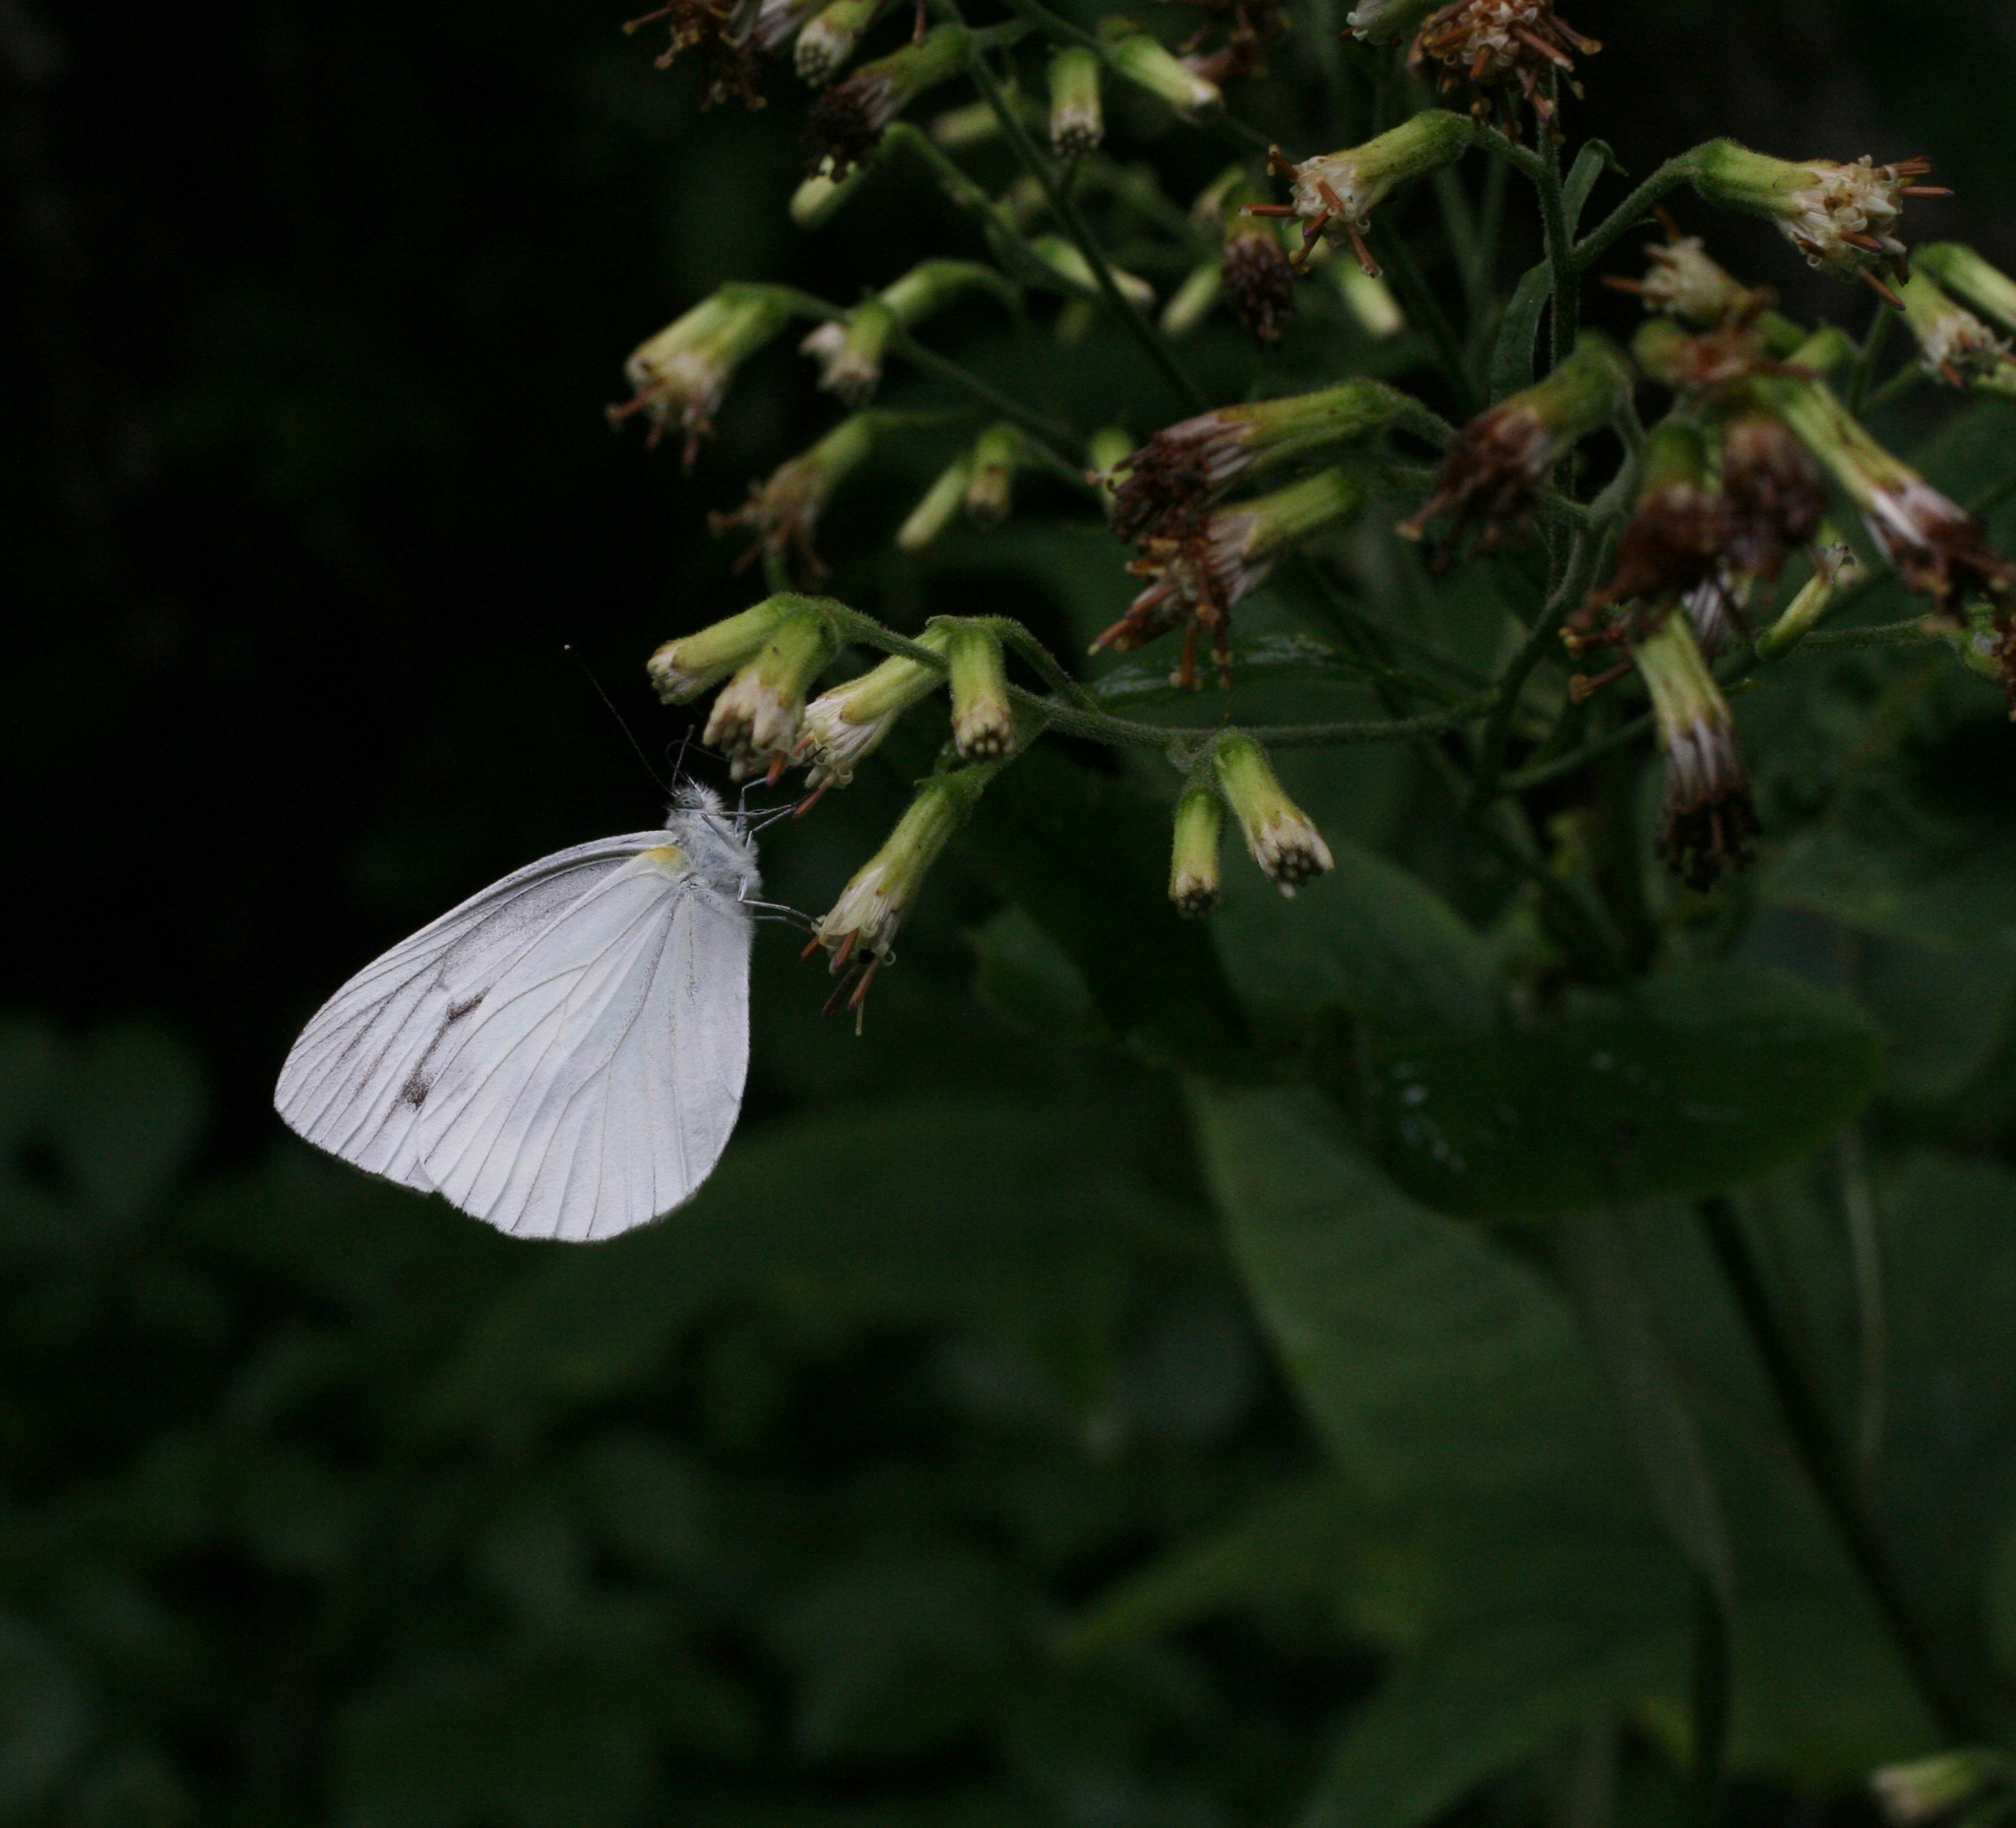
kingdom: Plantae
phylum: Tracheophyta
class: Magnoliopsida
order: Asterales
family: Asteraceae
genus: Parasenecio
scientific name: Parasenecio hastatus
